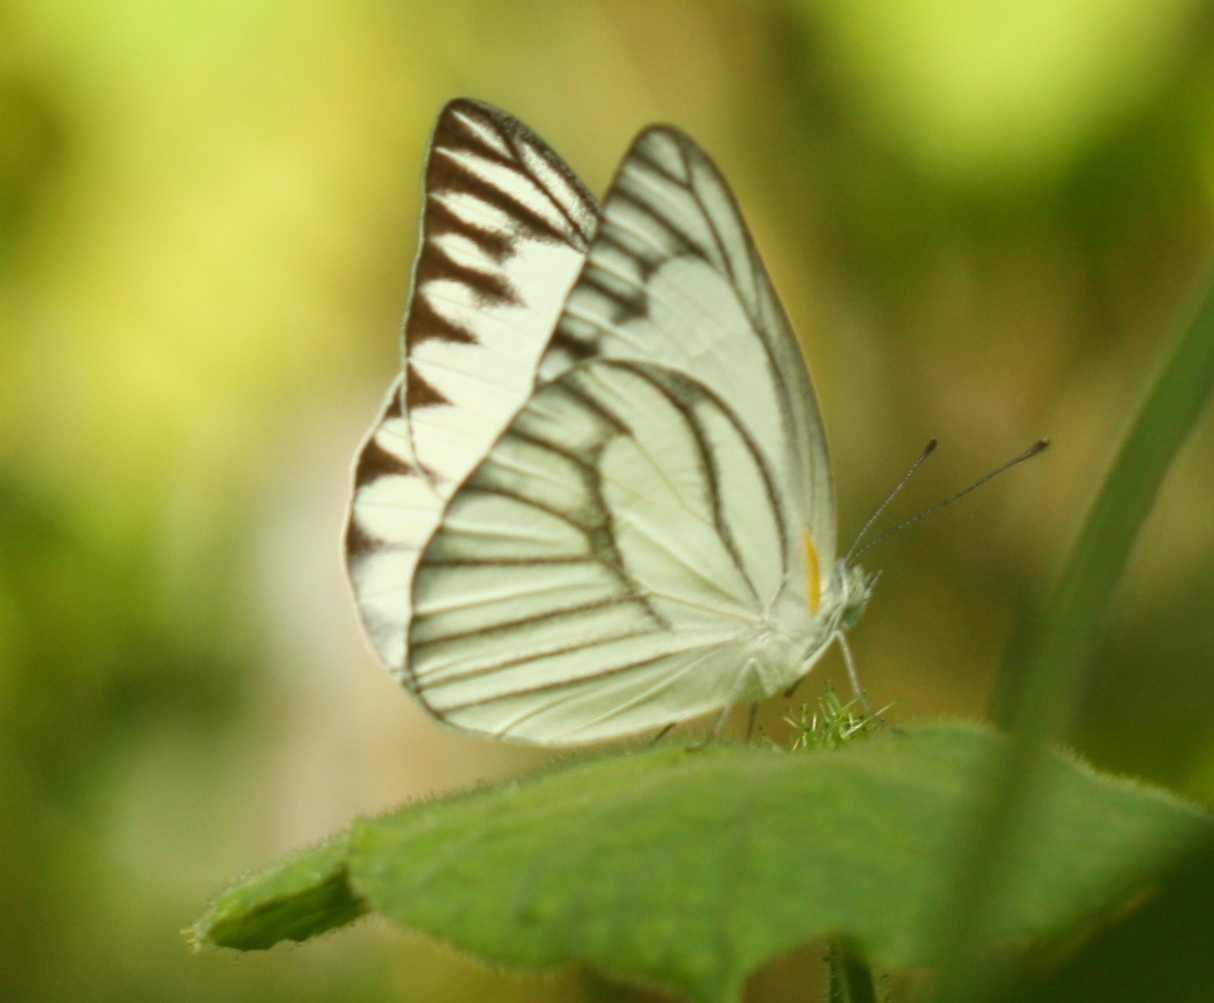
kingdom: Animalia
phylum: Arthropoda
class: Insecta
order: Lepidoptera
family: Pieridae
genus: Appias
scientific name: Appias libythea
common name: Striped albatross
